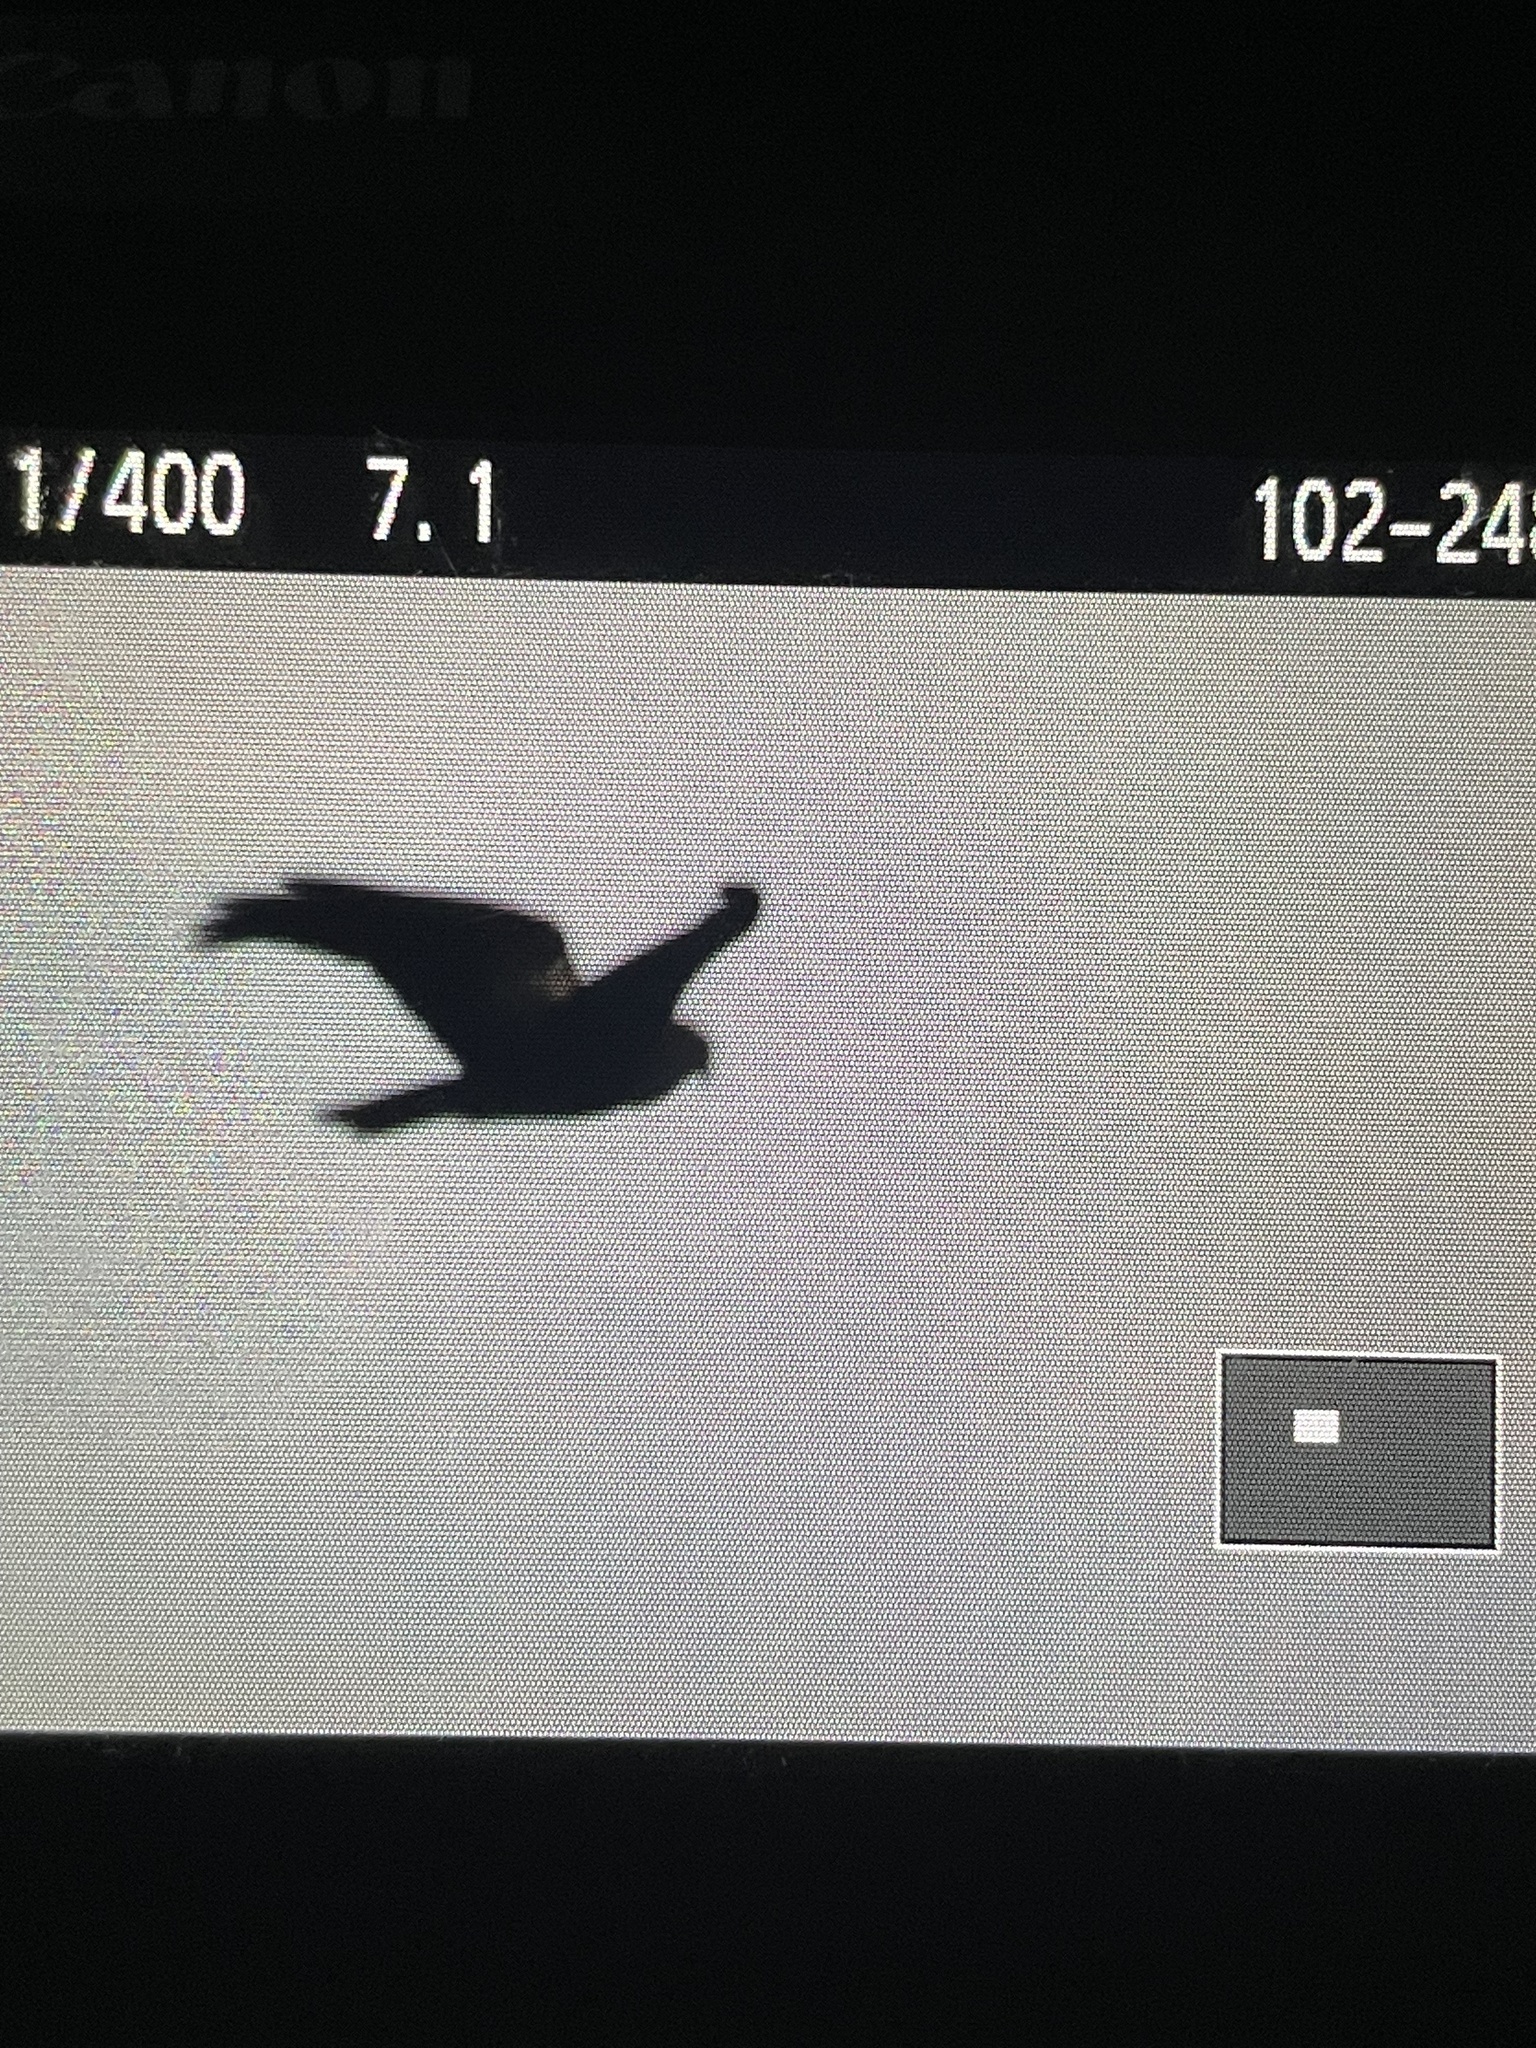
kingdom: Animalia
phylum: Chordata
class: Aves
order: Accipitriformes
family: Accipitridae
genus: Circus
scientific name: Circus aeruginosus
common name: Western marsh harrier
